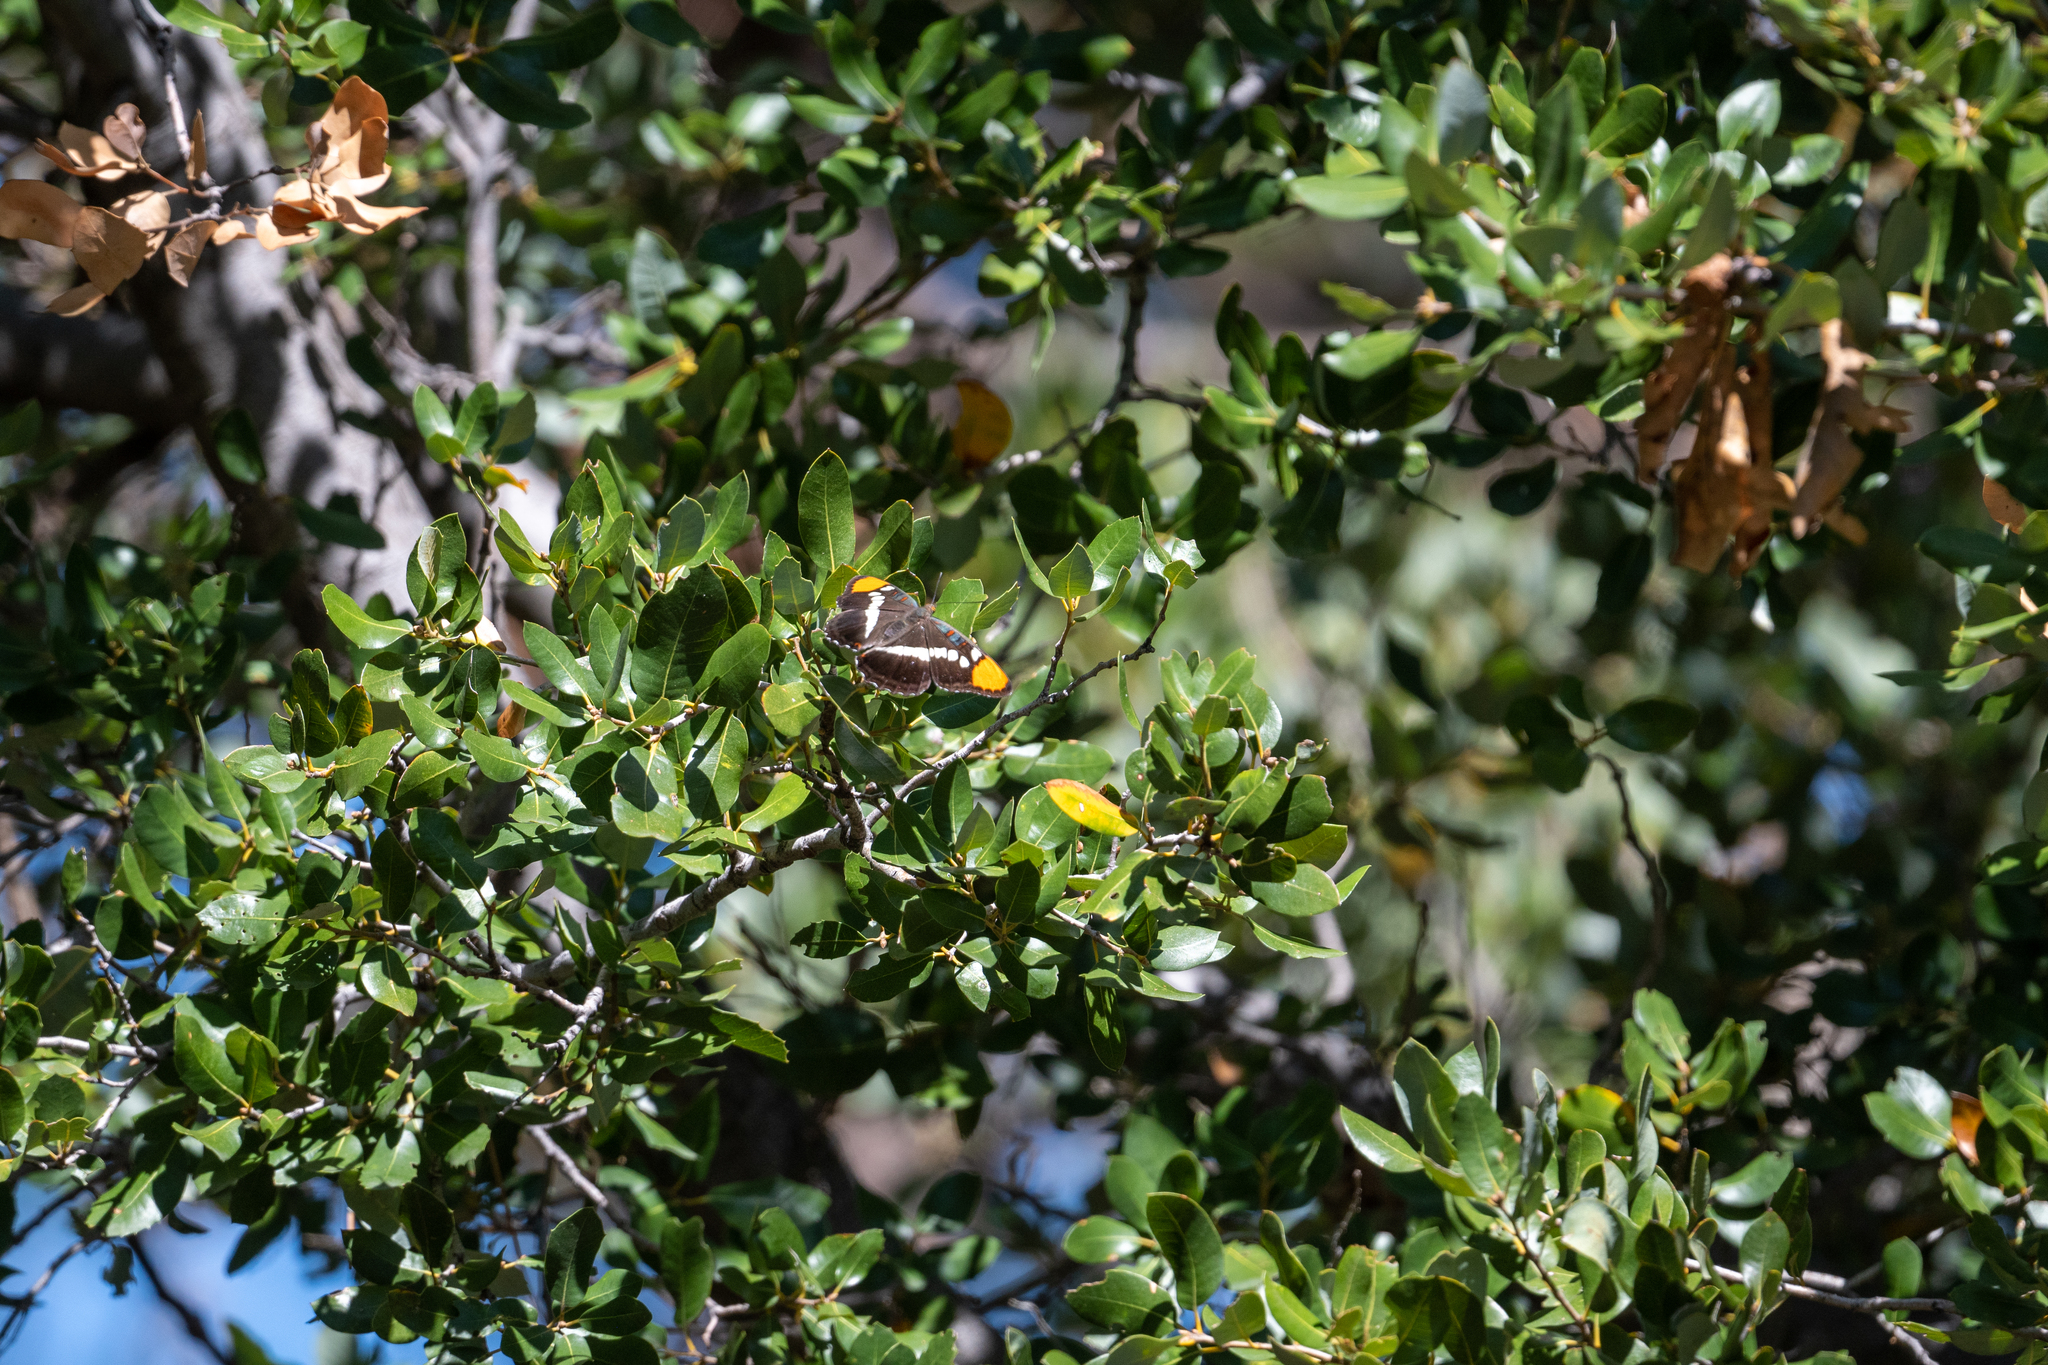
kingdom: Animalia
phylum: Arthropoda
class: Insecta
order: Lepidoptera
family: Nymphalidae
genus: Limenitis
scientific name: Limenitis bredowii
